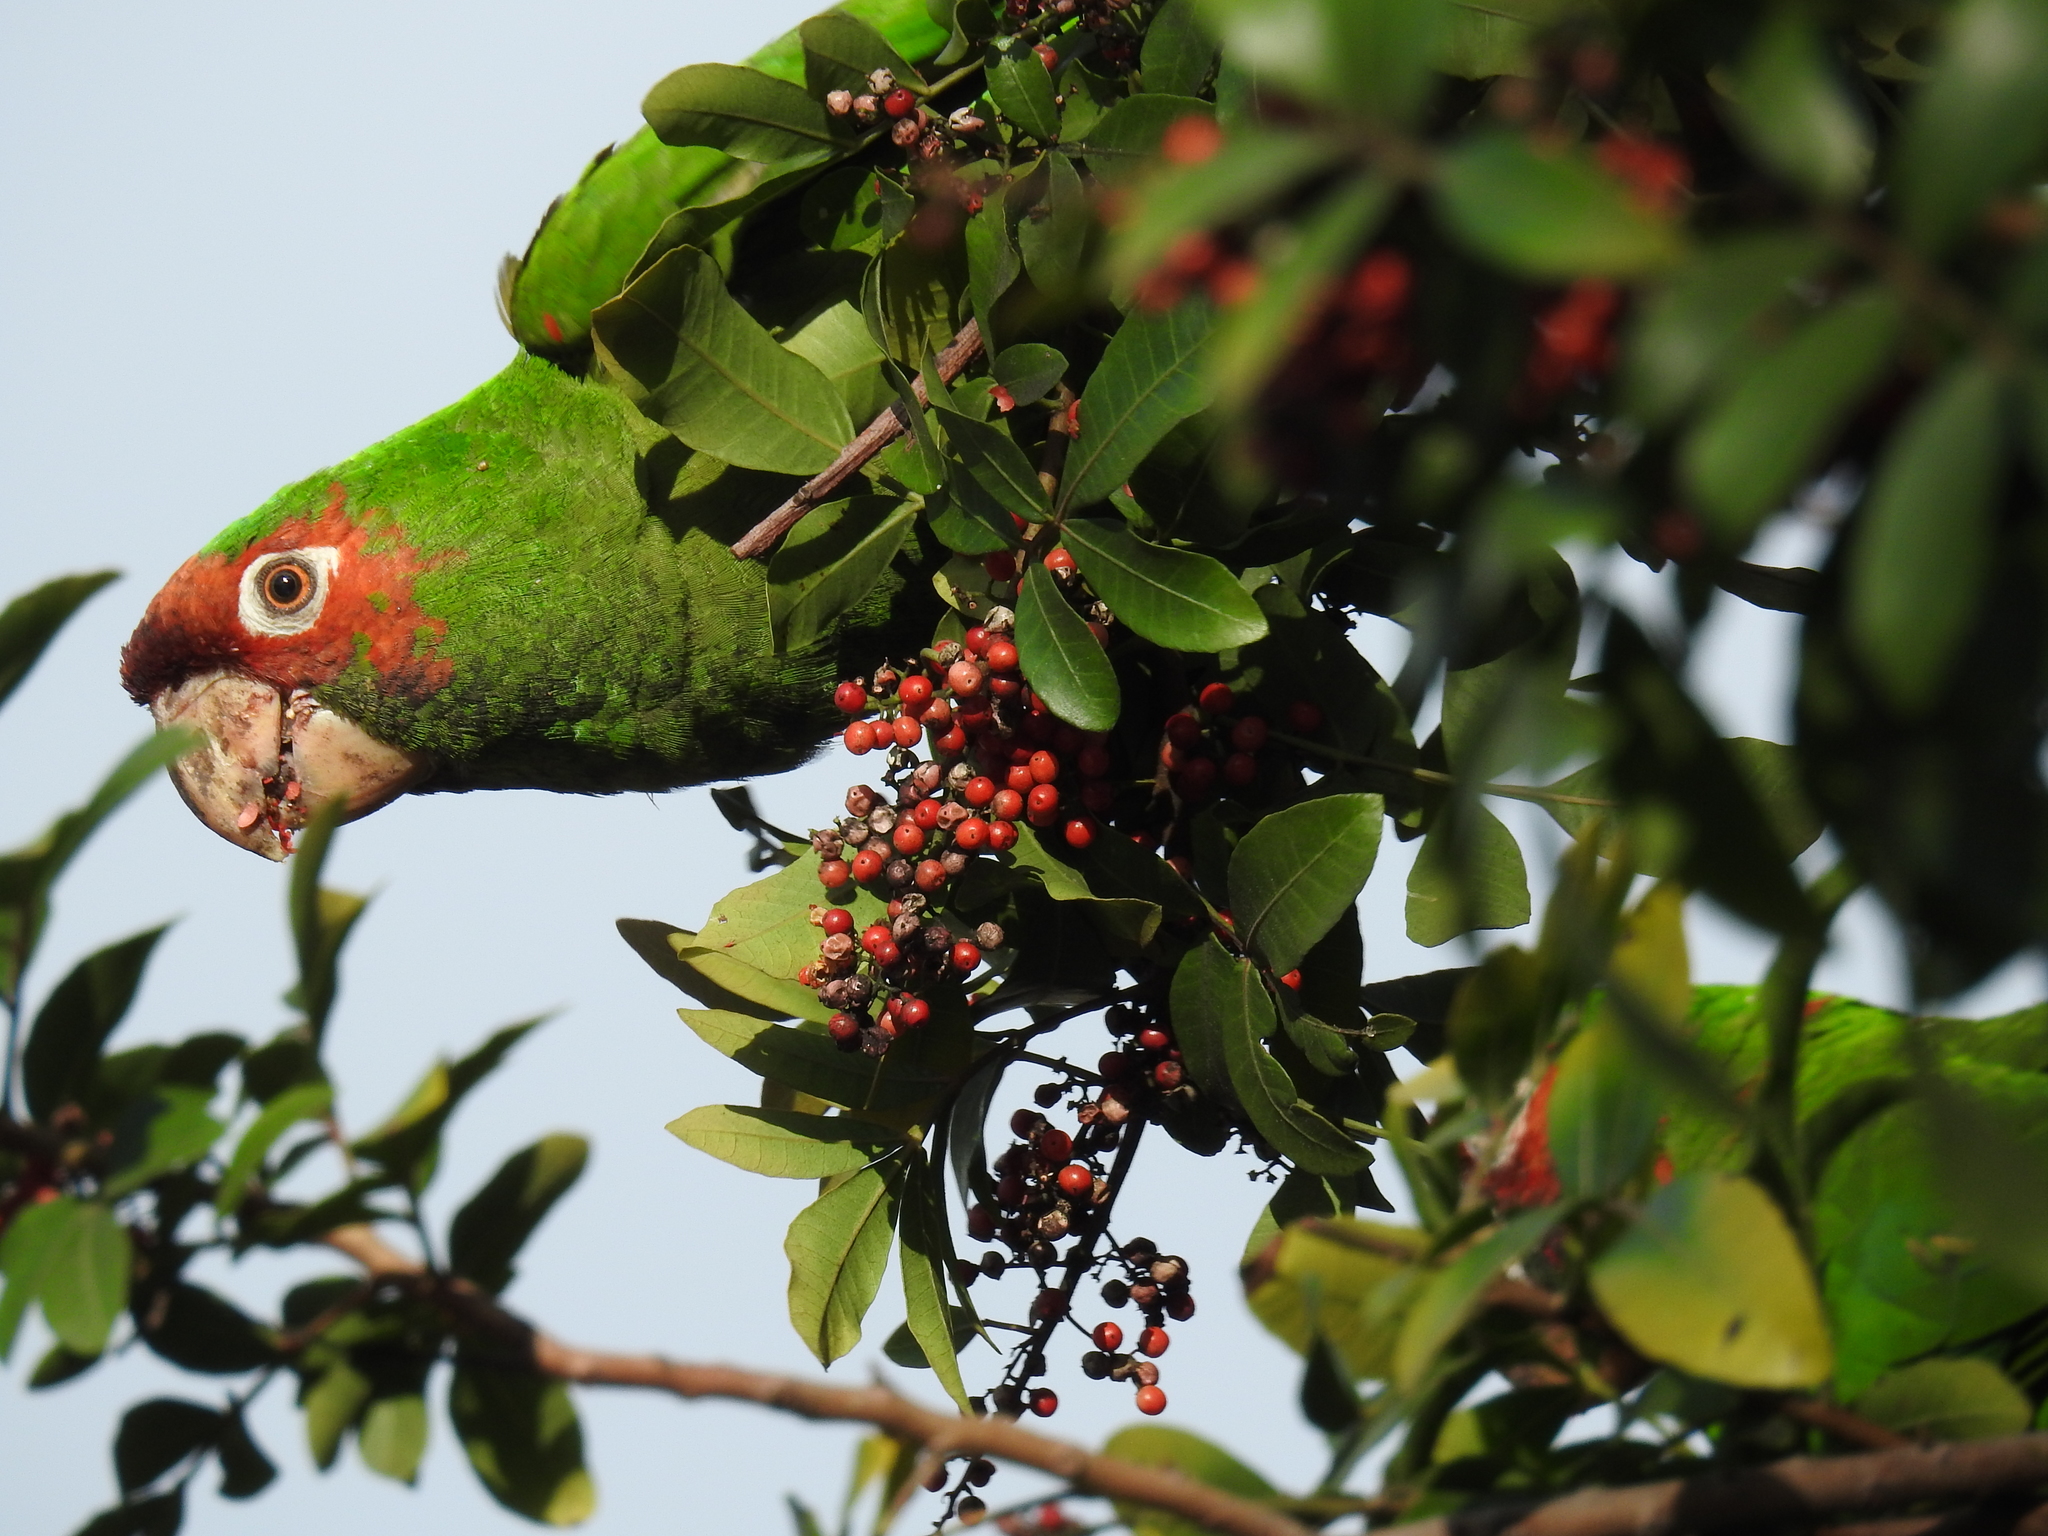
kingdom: Animalia
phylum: Chordata
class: Aves
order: Psittaciformes
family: Psittacidae
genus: Aratinga
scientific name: Aratinga mitrata
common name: Mitred parakeet
